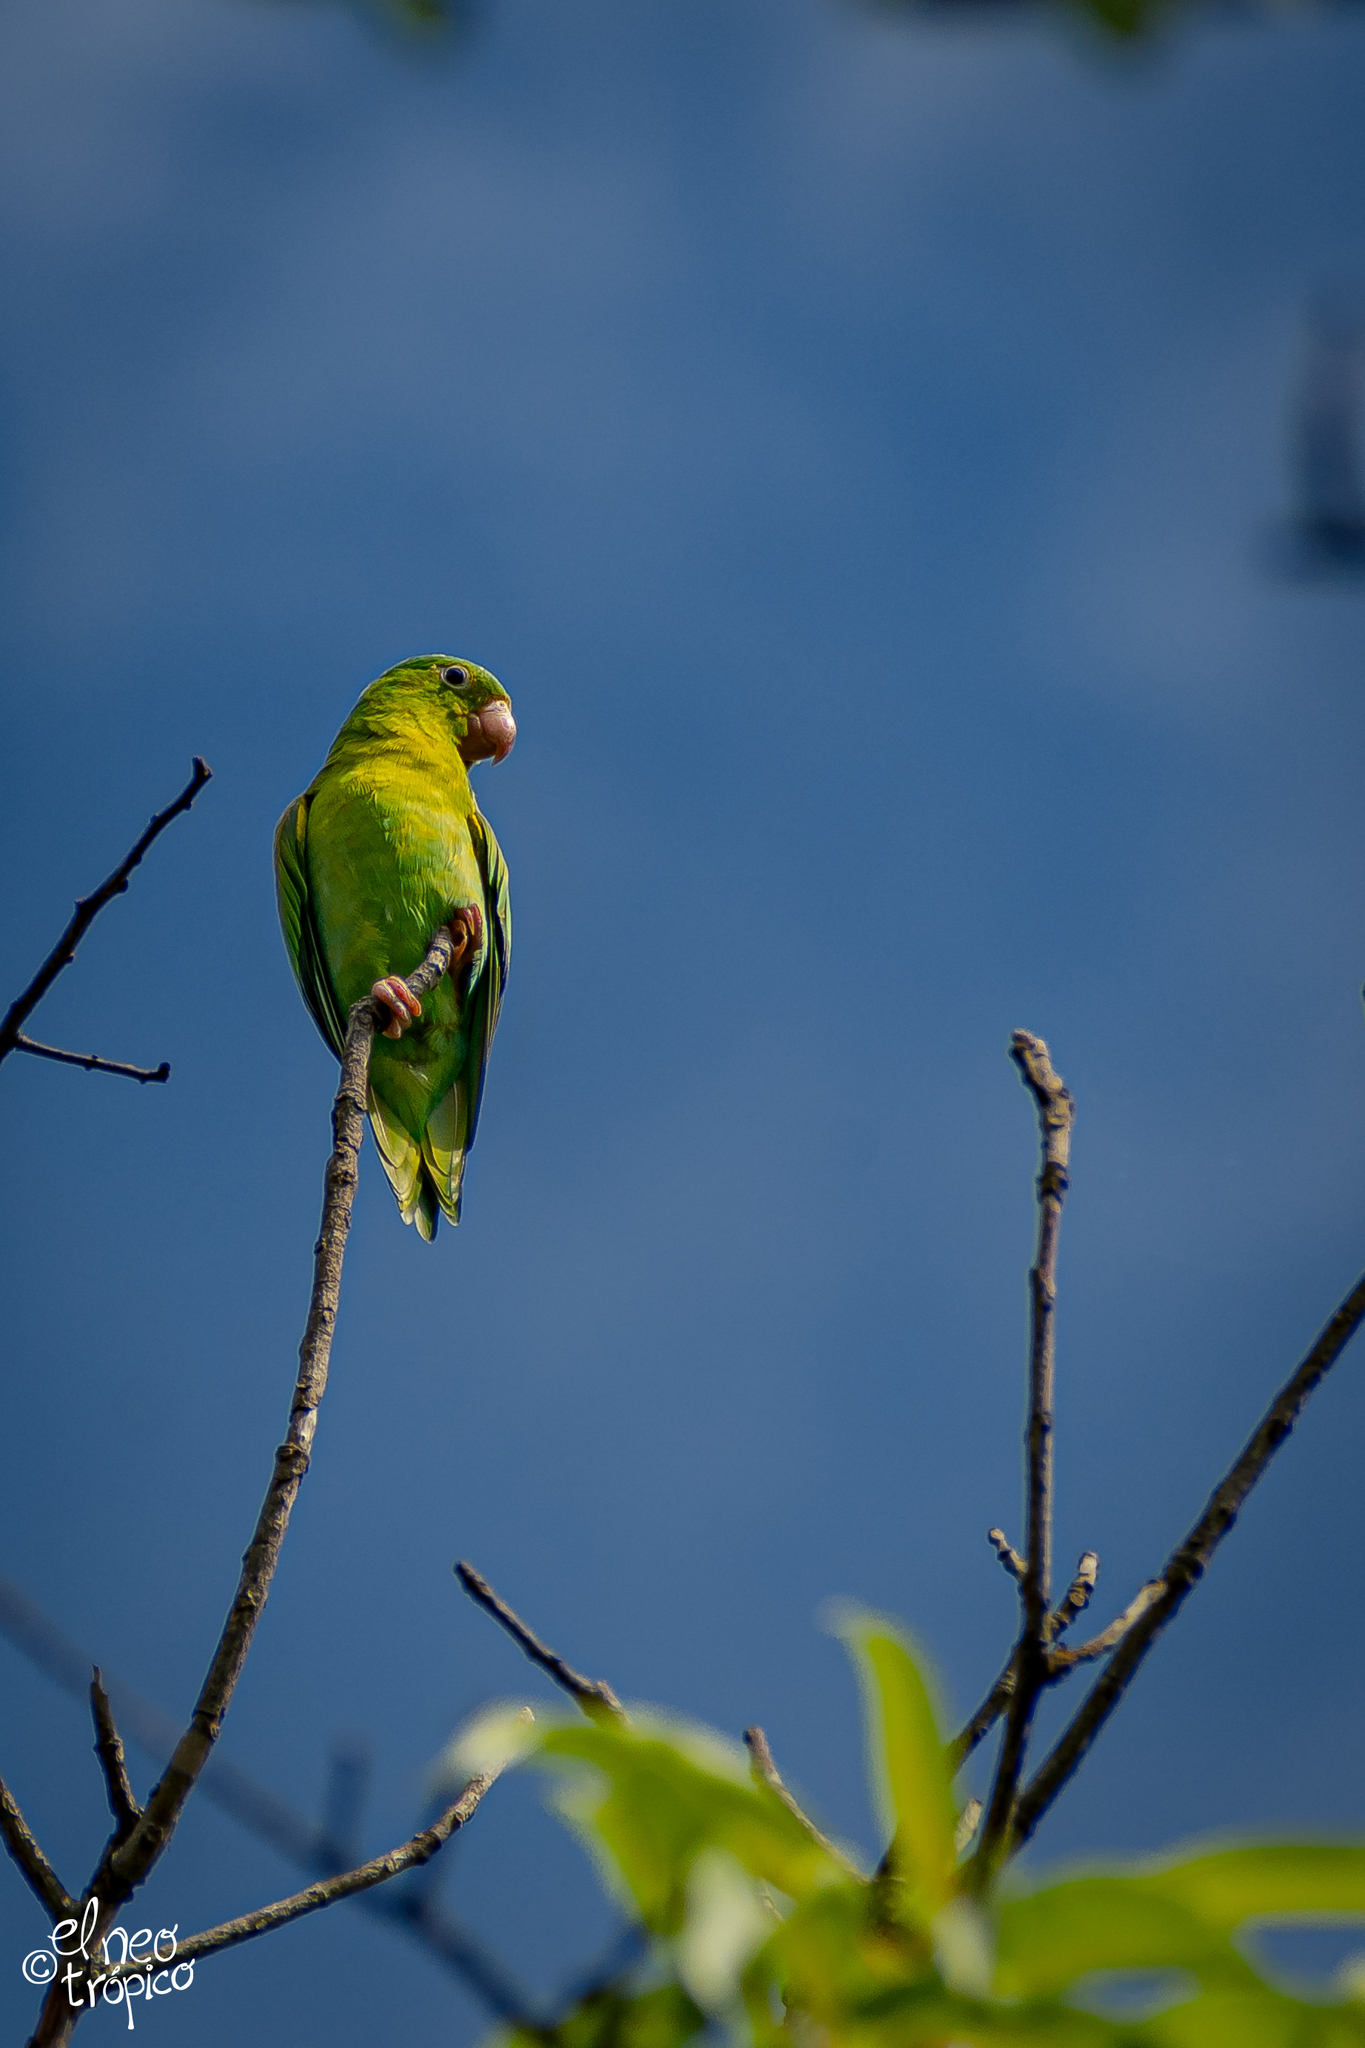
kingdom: Animalia
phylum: Chordata
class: Aves
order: Psittaciformes
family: Psittacidae
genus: Brotogeris
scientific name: Brotogeris jugularis
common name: Orange-chinned parakeet
